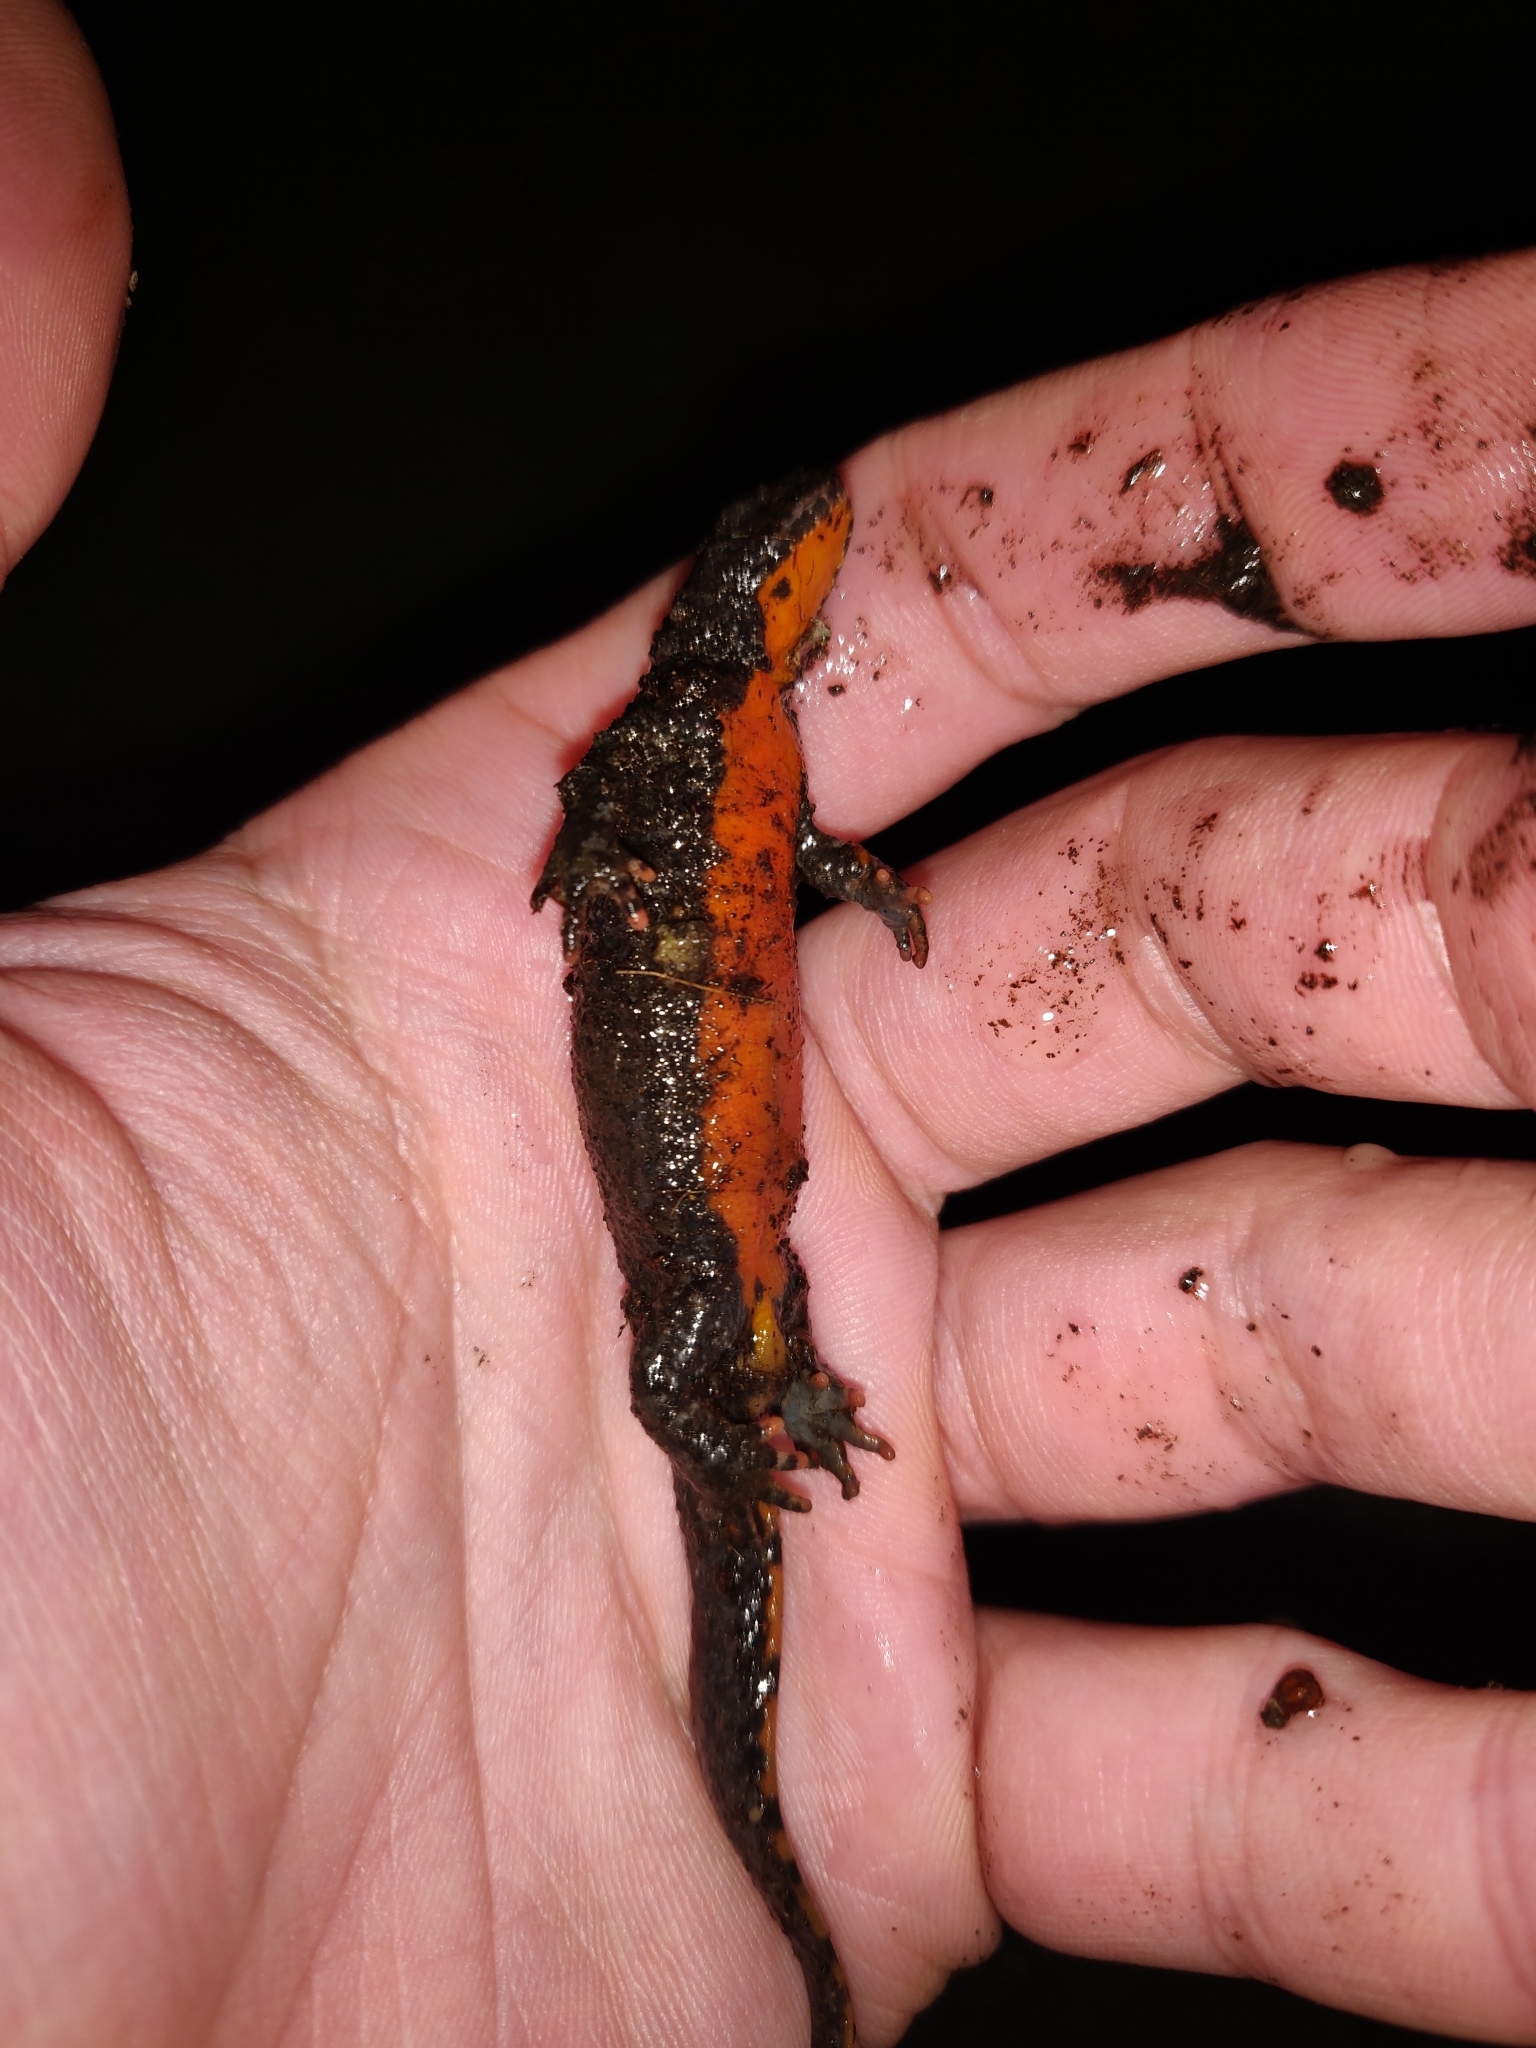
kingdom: Animalia
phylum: Chordata
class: Amphibia
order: Caudata
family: Salamandridae
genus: Ichthyosaura
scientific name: Ichthyosaura alpestris
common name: Alpine newt
